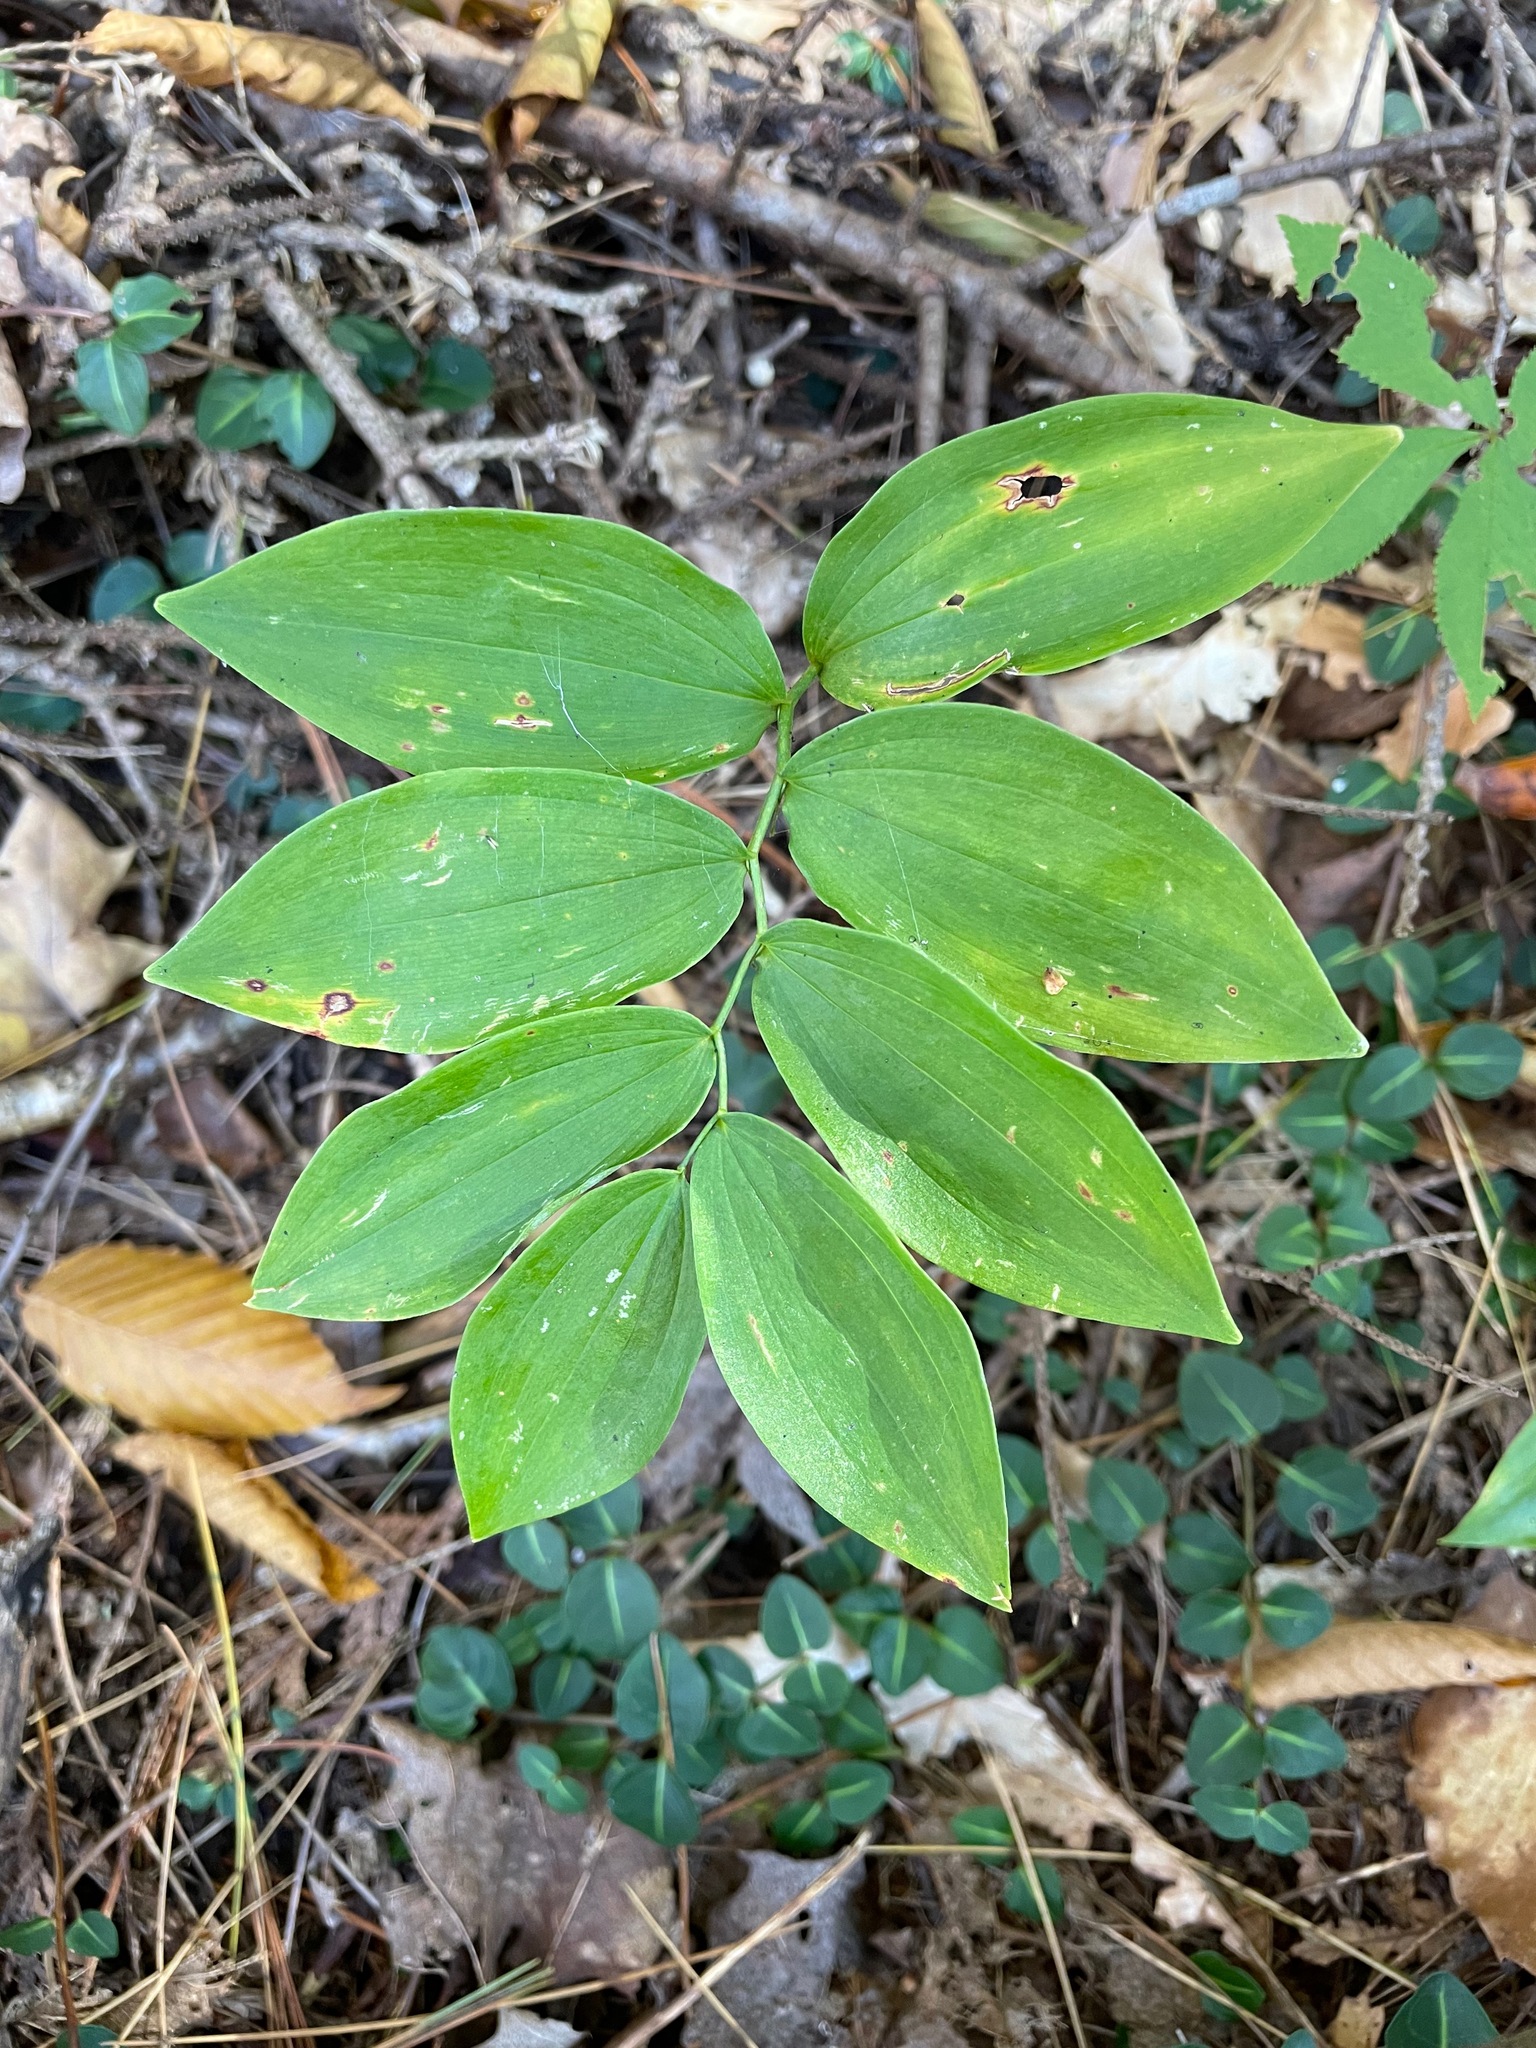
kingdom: Plantae
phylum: Tracheophyta
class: Liliopsida
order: Asparagales
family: Asparagaceae
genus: Polygonatum
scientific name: Polygonatum pubescens
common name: Downy solomon's seal
